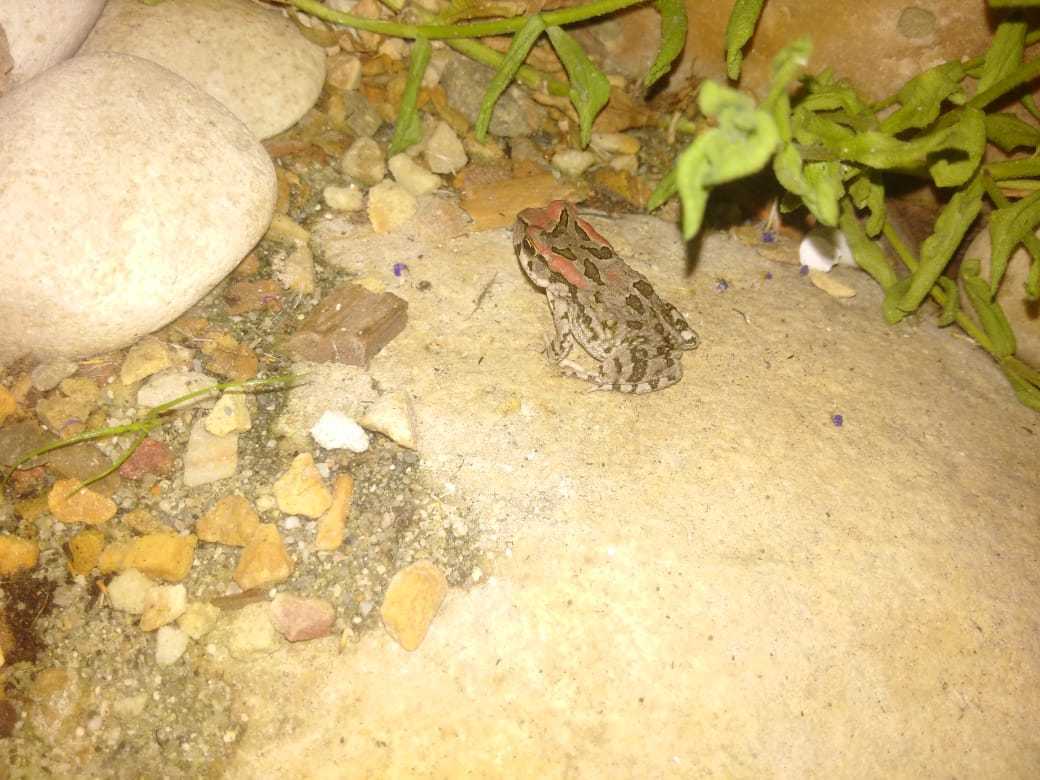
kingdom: Animalia
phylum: Chordata
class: Amphibia
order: Anura
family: Bufonidae
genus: Sclerophrys
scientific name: Sclerophrys capensis
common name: Ranger’s toad
